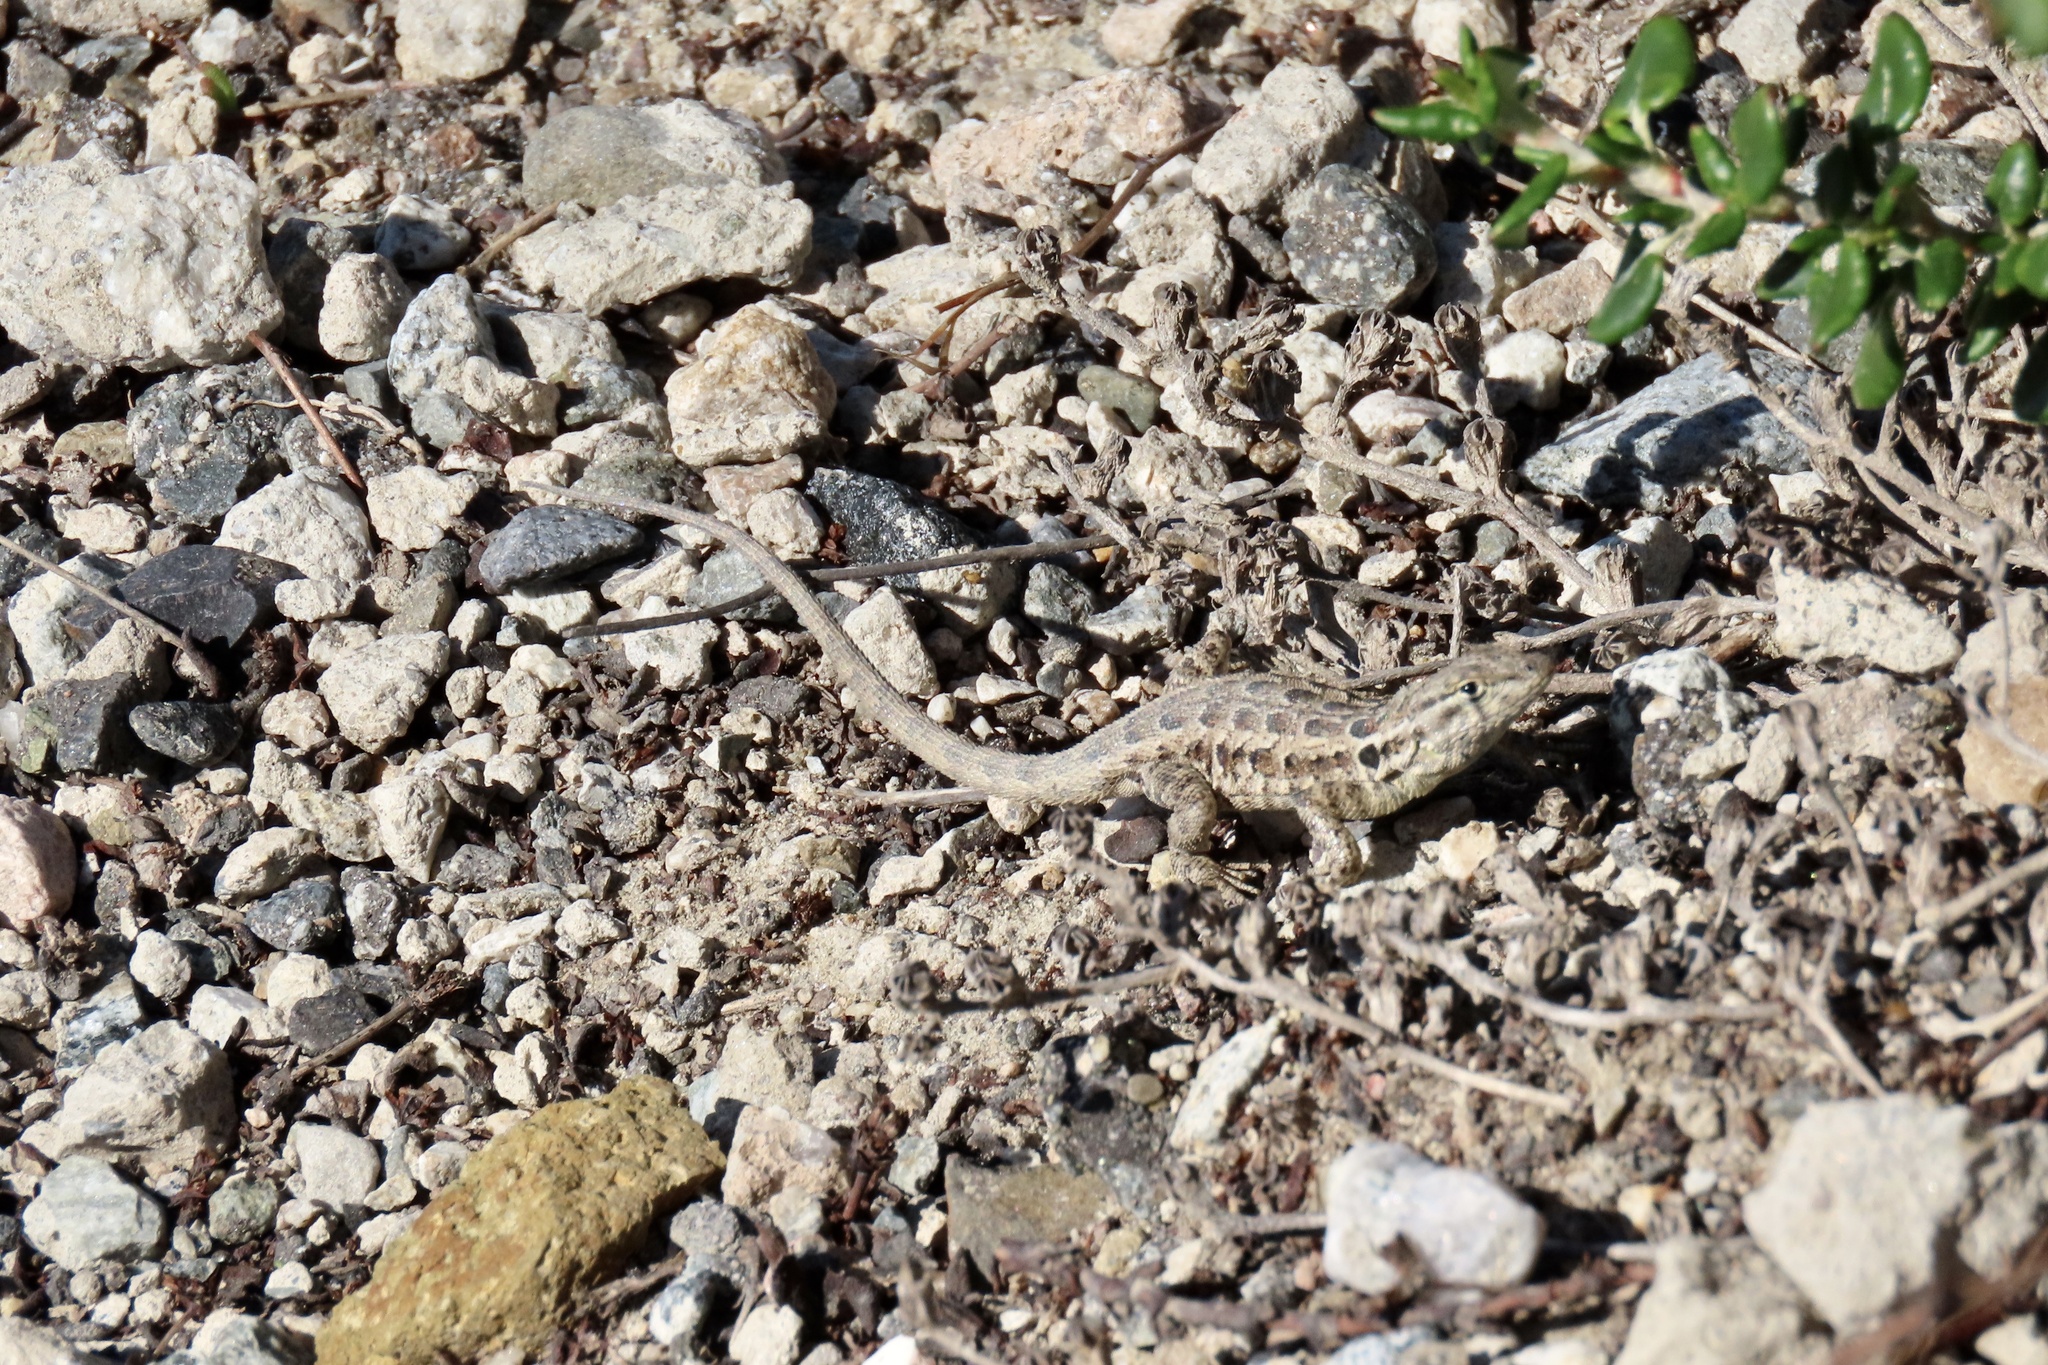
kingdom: Animalia
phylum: Chordata
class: Squamata
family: Phrynosomatidae
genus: Uta
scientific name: Uta stansburiana
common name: Side-blotched lizard
